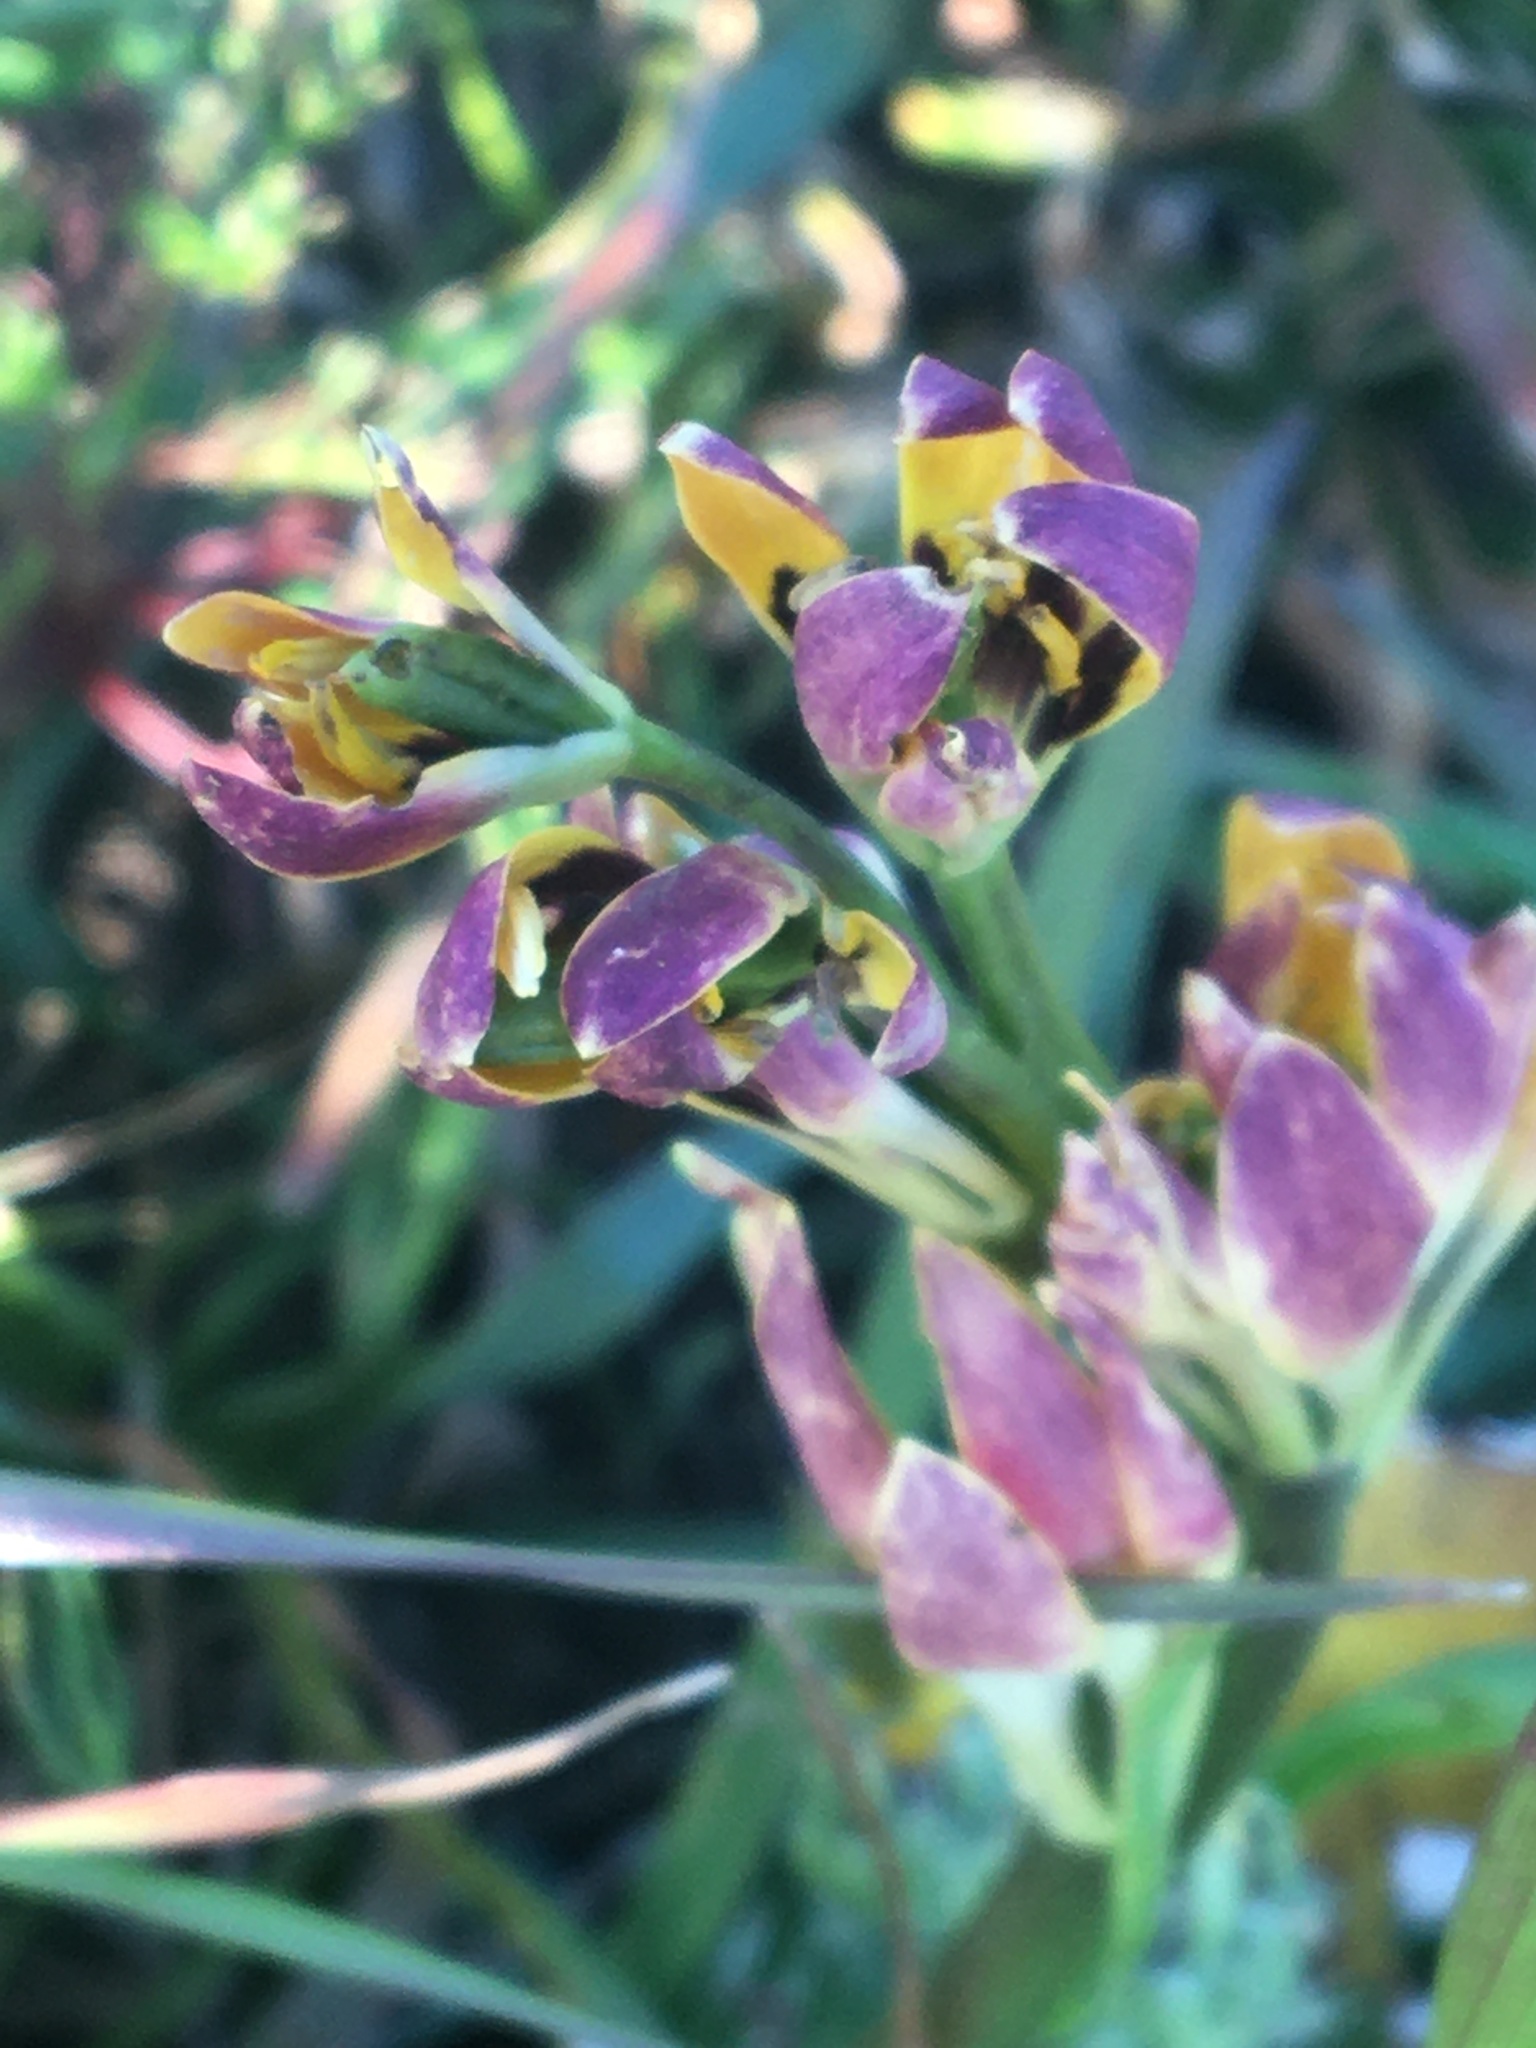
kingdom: Plantae
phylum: Tracheophyta
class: Liliopsida
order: Liliales
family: Colchicaceae
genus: Baeometra
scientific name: Baeometra uniflora
